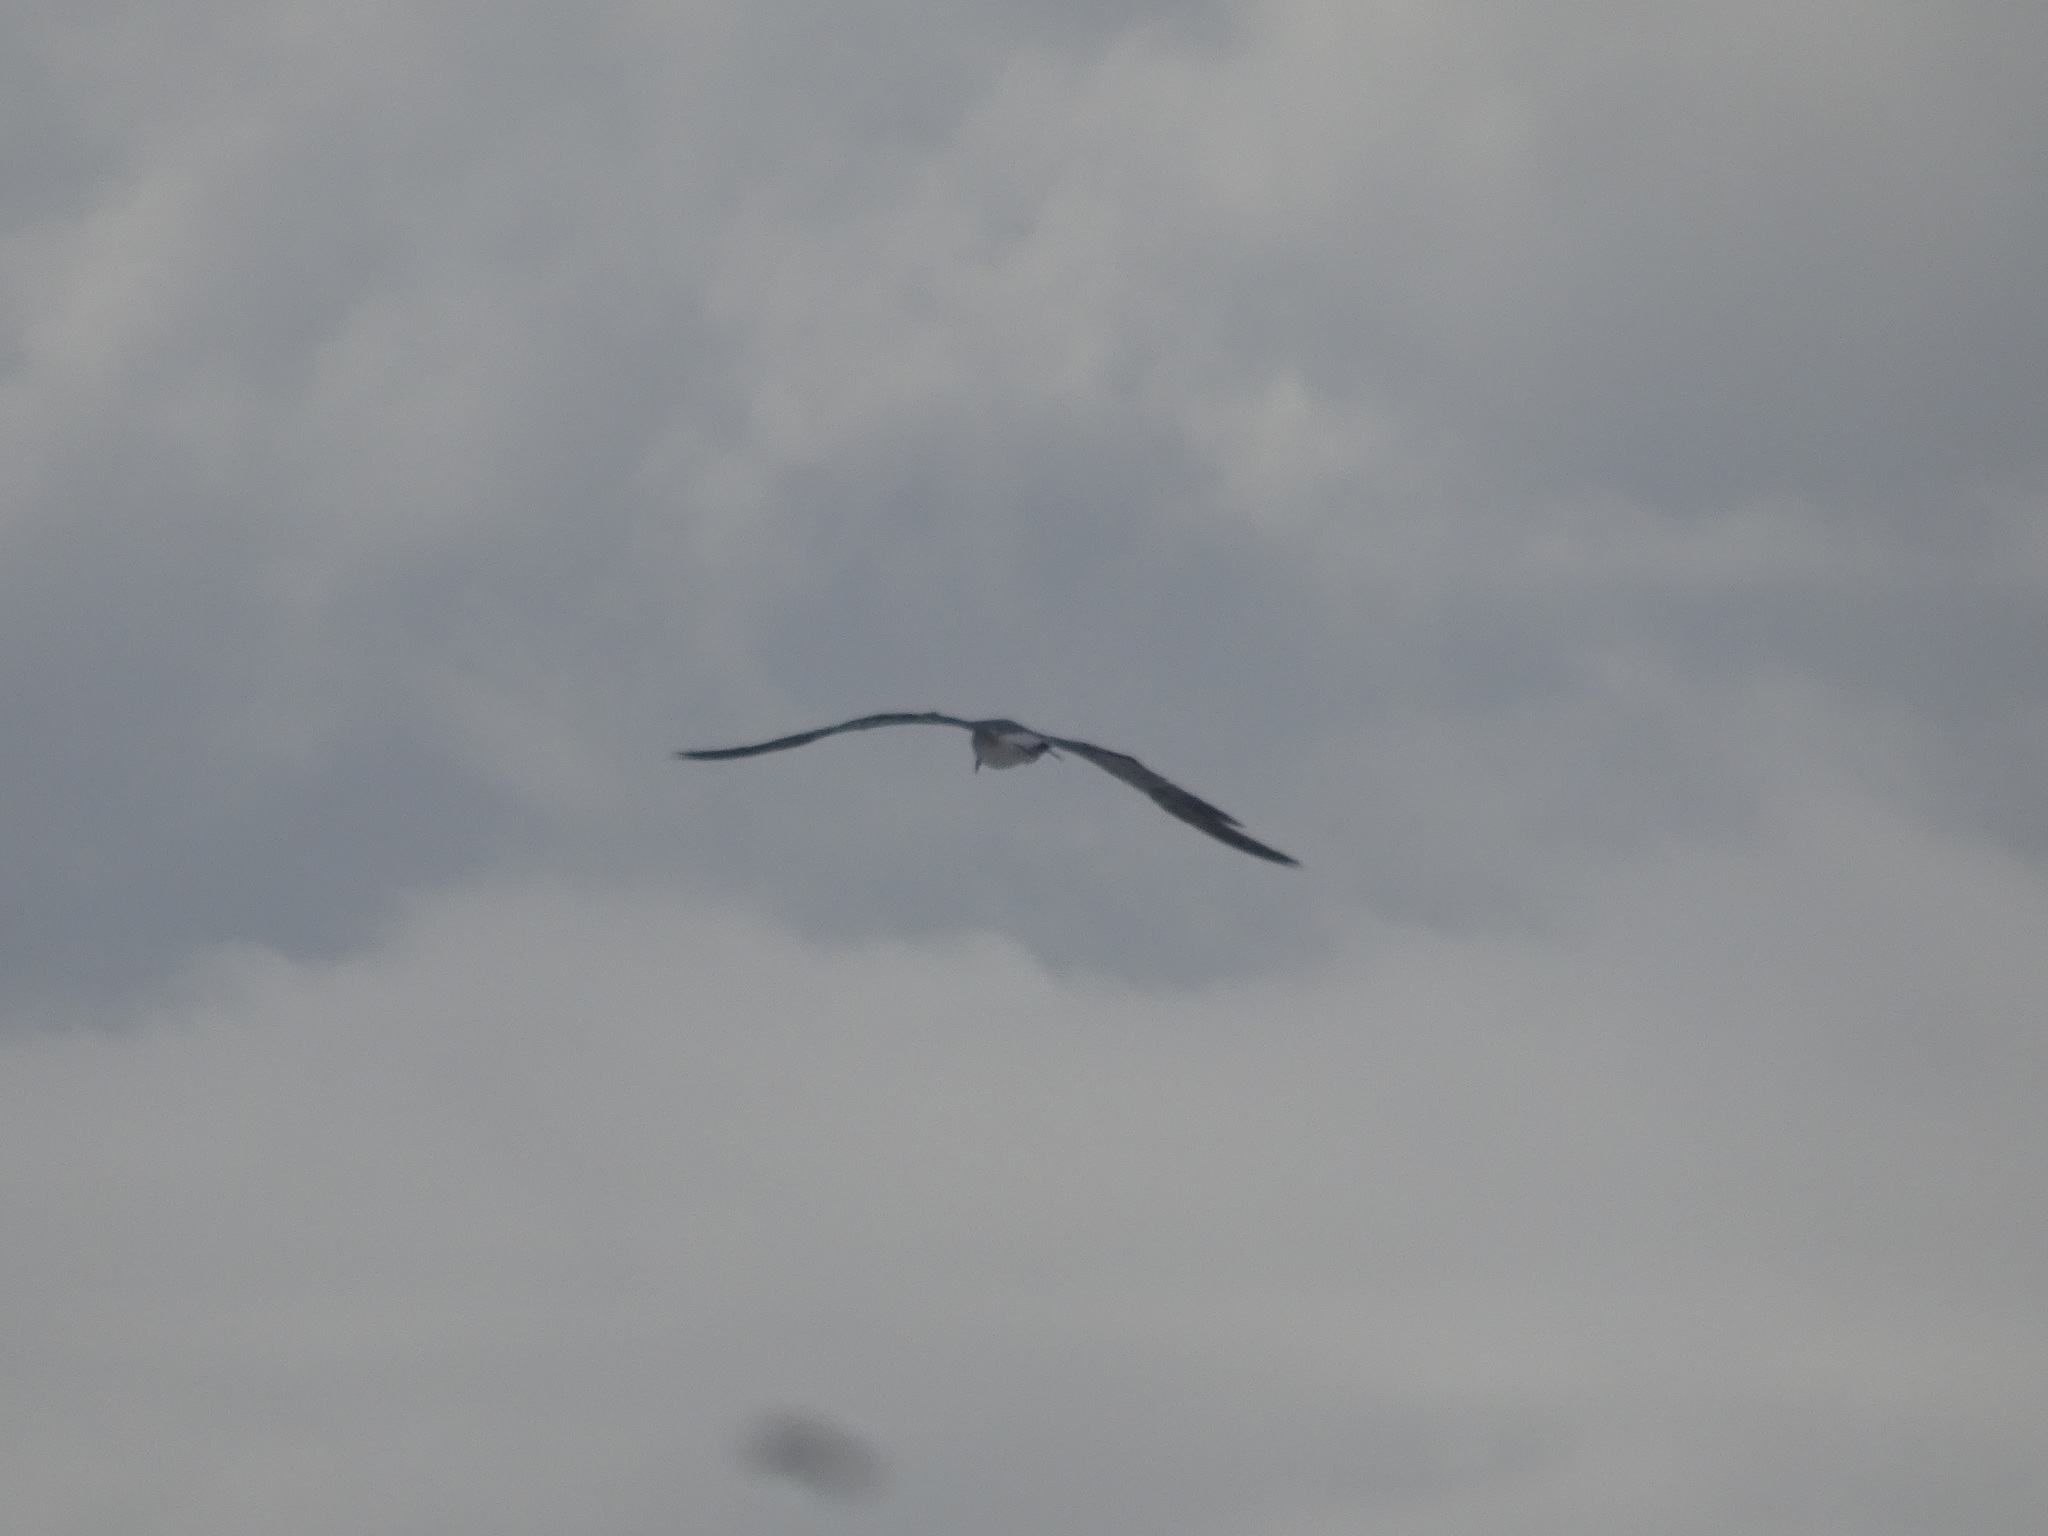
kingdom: Animalia
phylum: Chordata
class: Aves
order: Charadriiformes
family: Laridae
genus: Leucophaeus
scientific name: Leucophaeus atricilla
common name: Laughing gull
